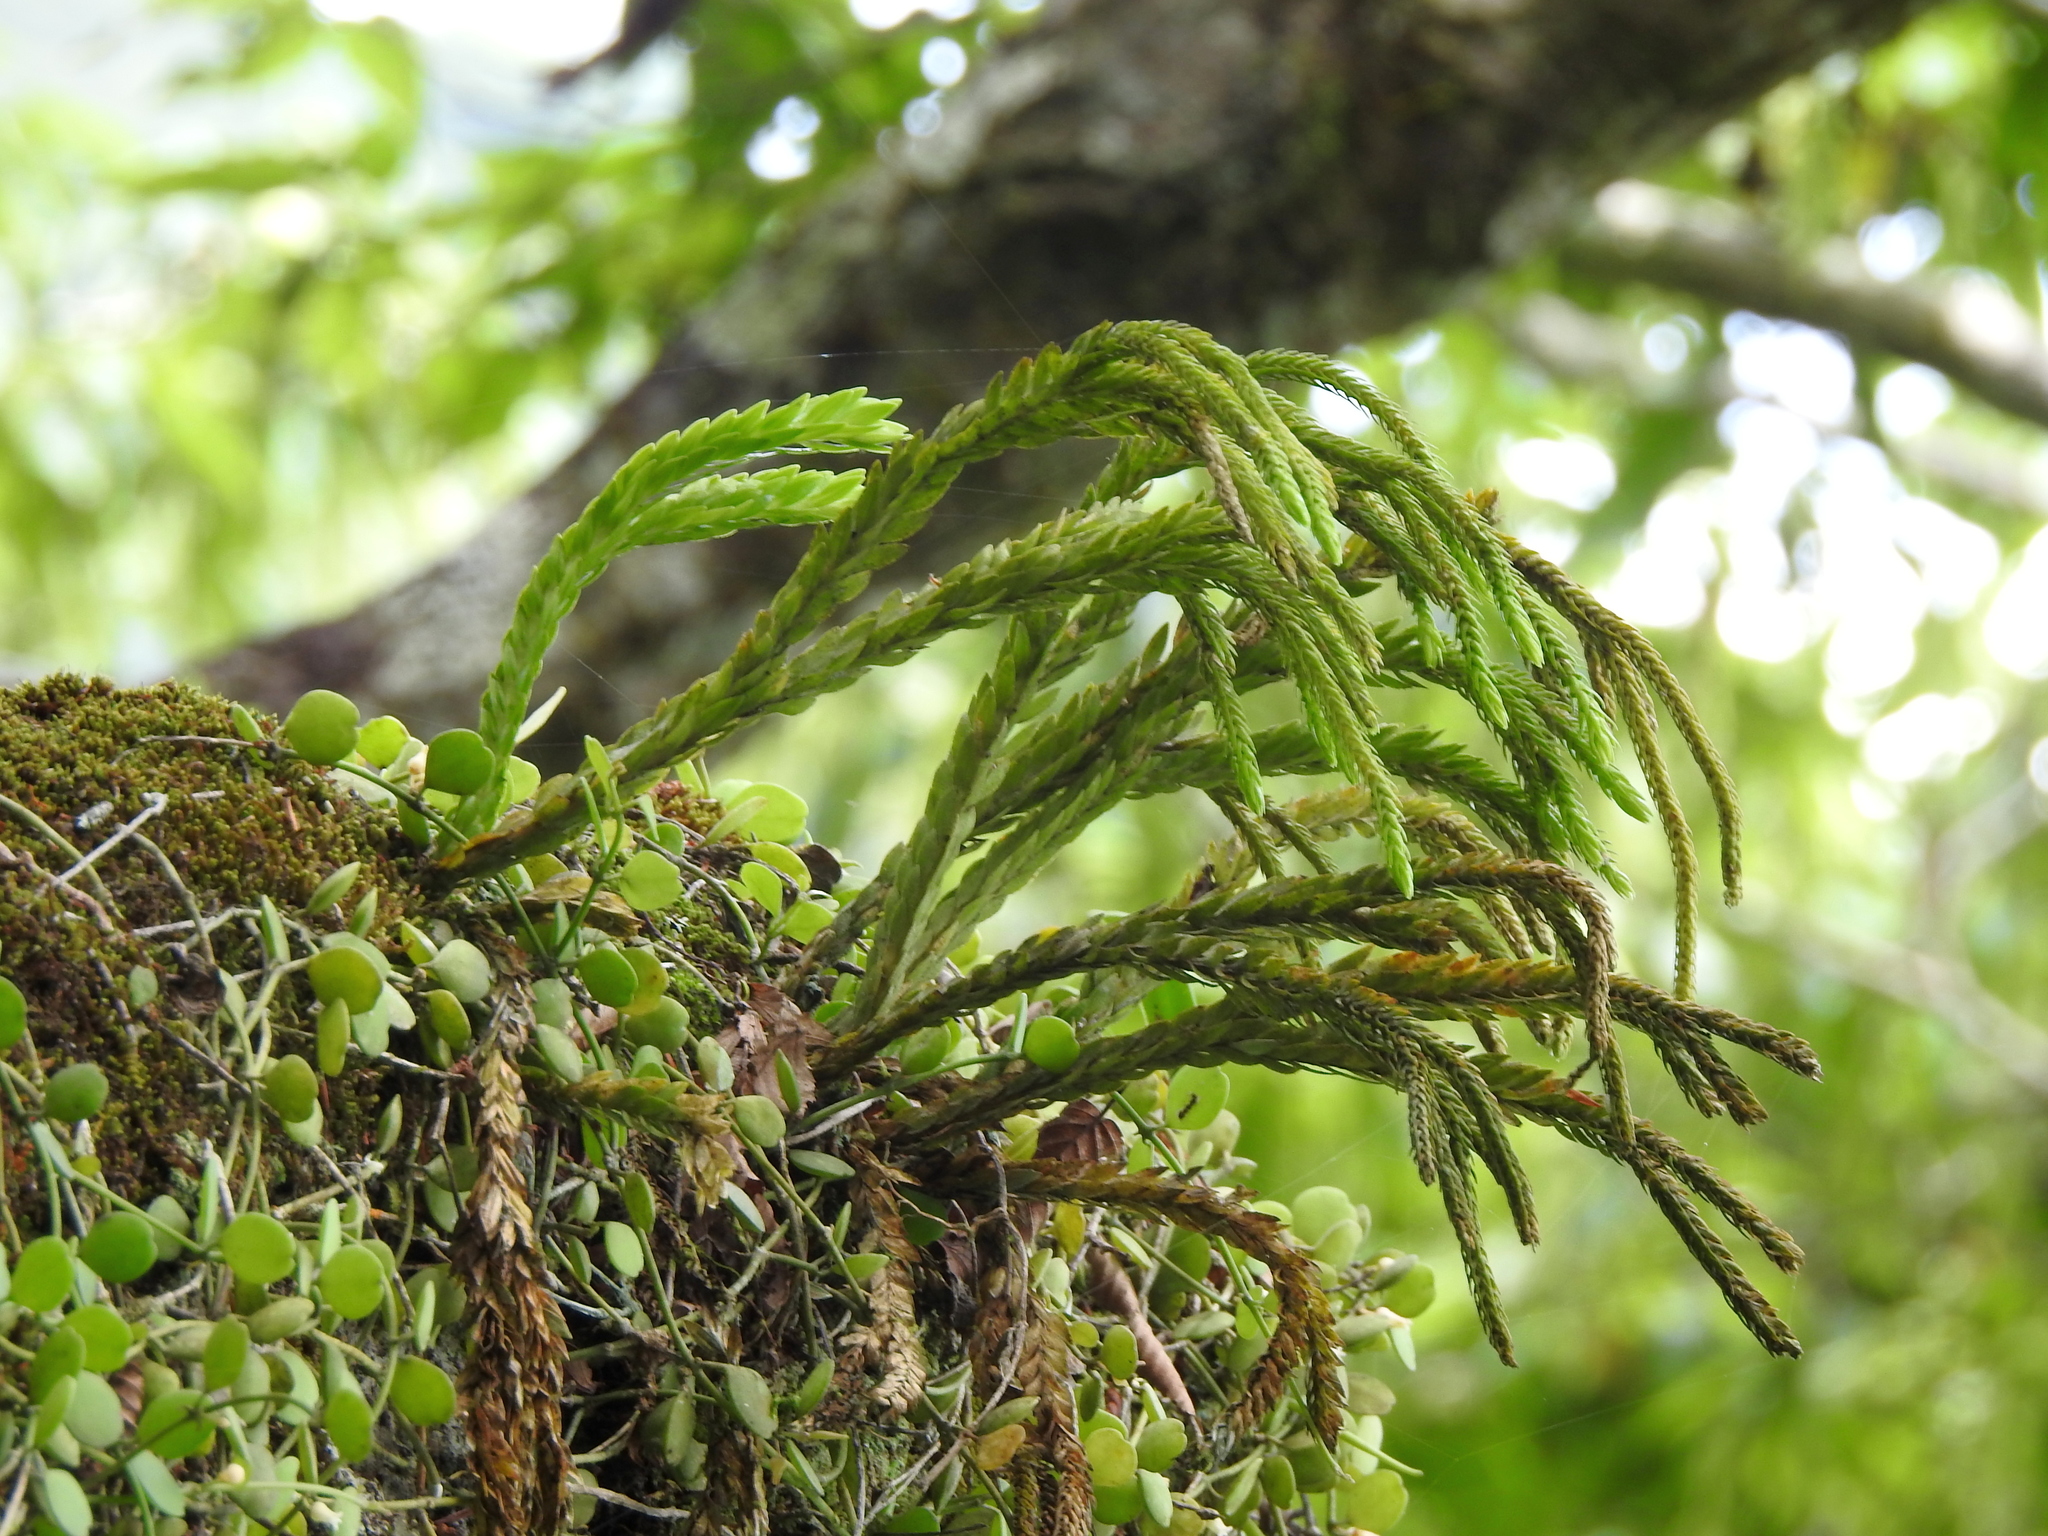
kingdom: Plantae
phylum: Tracheophyta
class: Lycopodiopsida
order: Lycopodiales
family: Lycopodiaceae
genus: Phlegmariurus
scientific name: Phlegmariurus fordii
